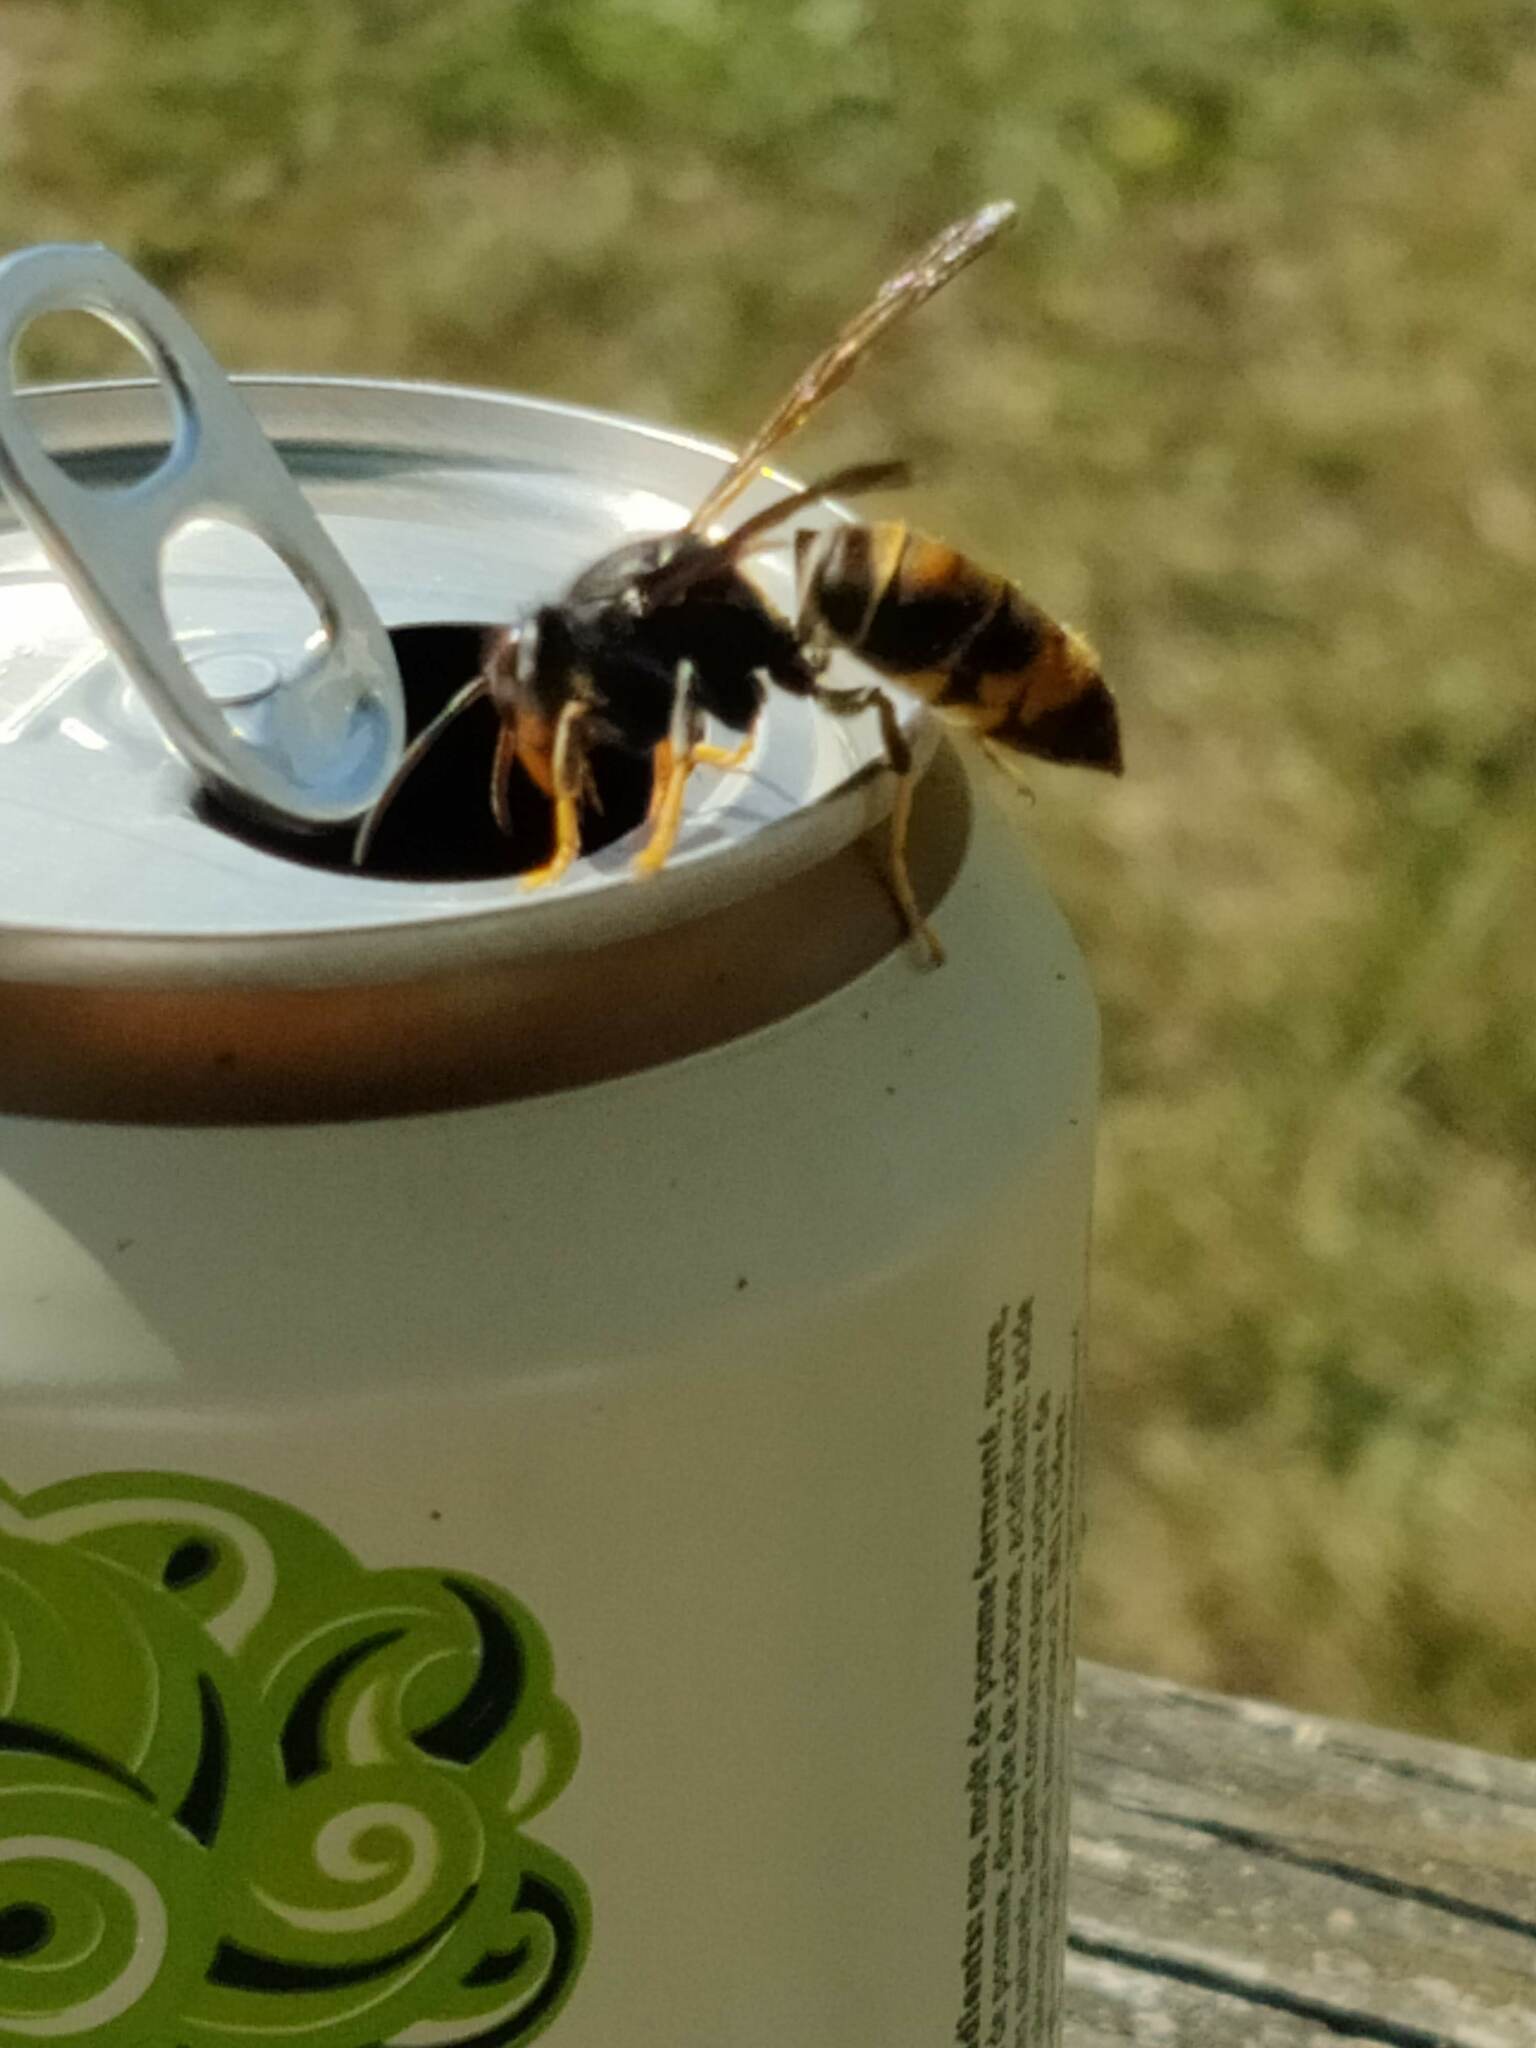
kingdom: Animalia
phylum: Arthropoda
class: Insecta
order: Hymenoptera
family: Vespidae
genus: Vespa
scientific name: Vespa velutina
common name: Asian hornet
